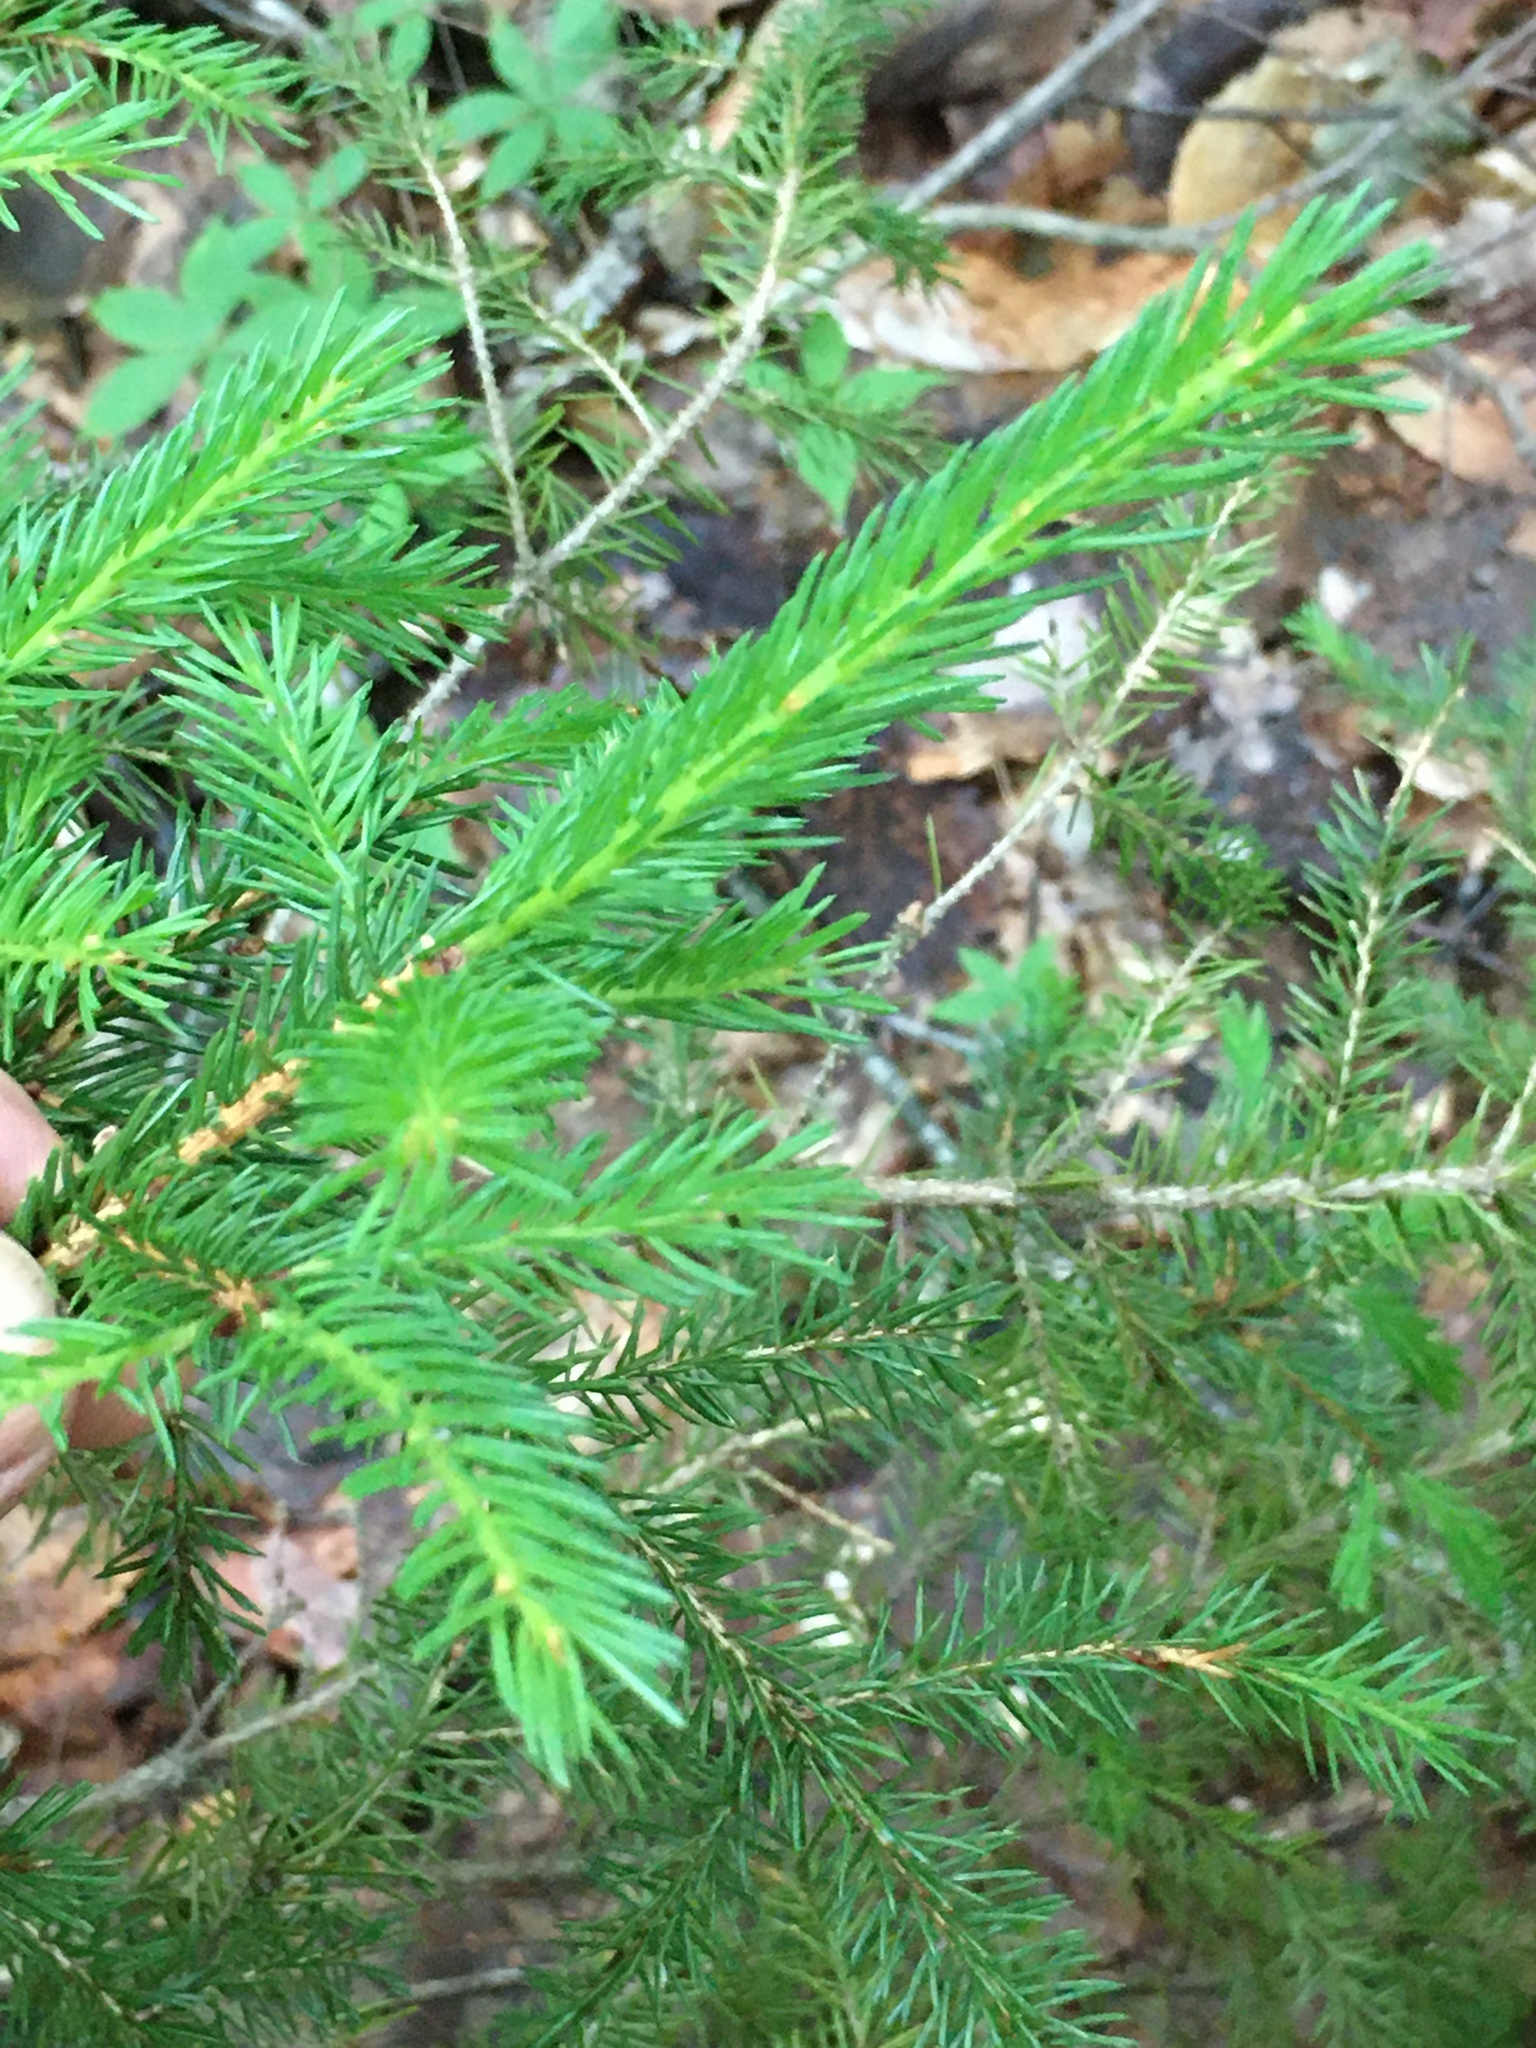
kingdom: Plantae
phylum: Tracheophyta
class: Pinopsida
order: Pinales
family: Pinaceae
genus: Picea
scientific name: Picea rubens
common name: Red spruce
